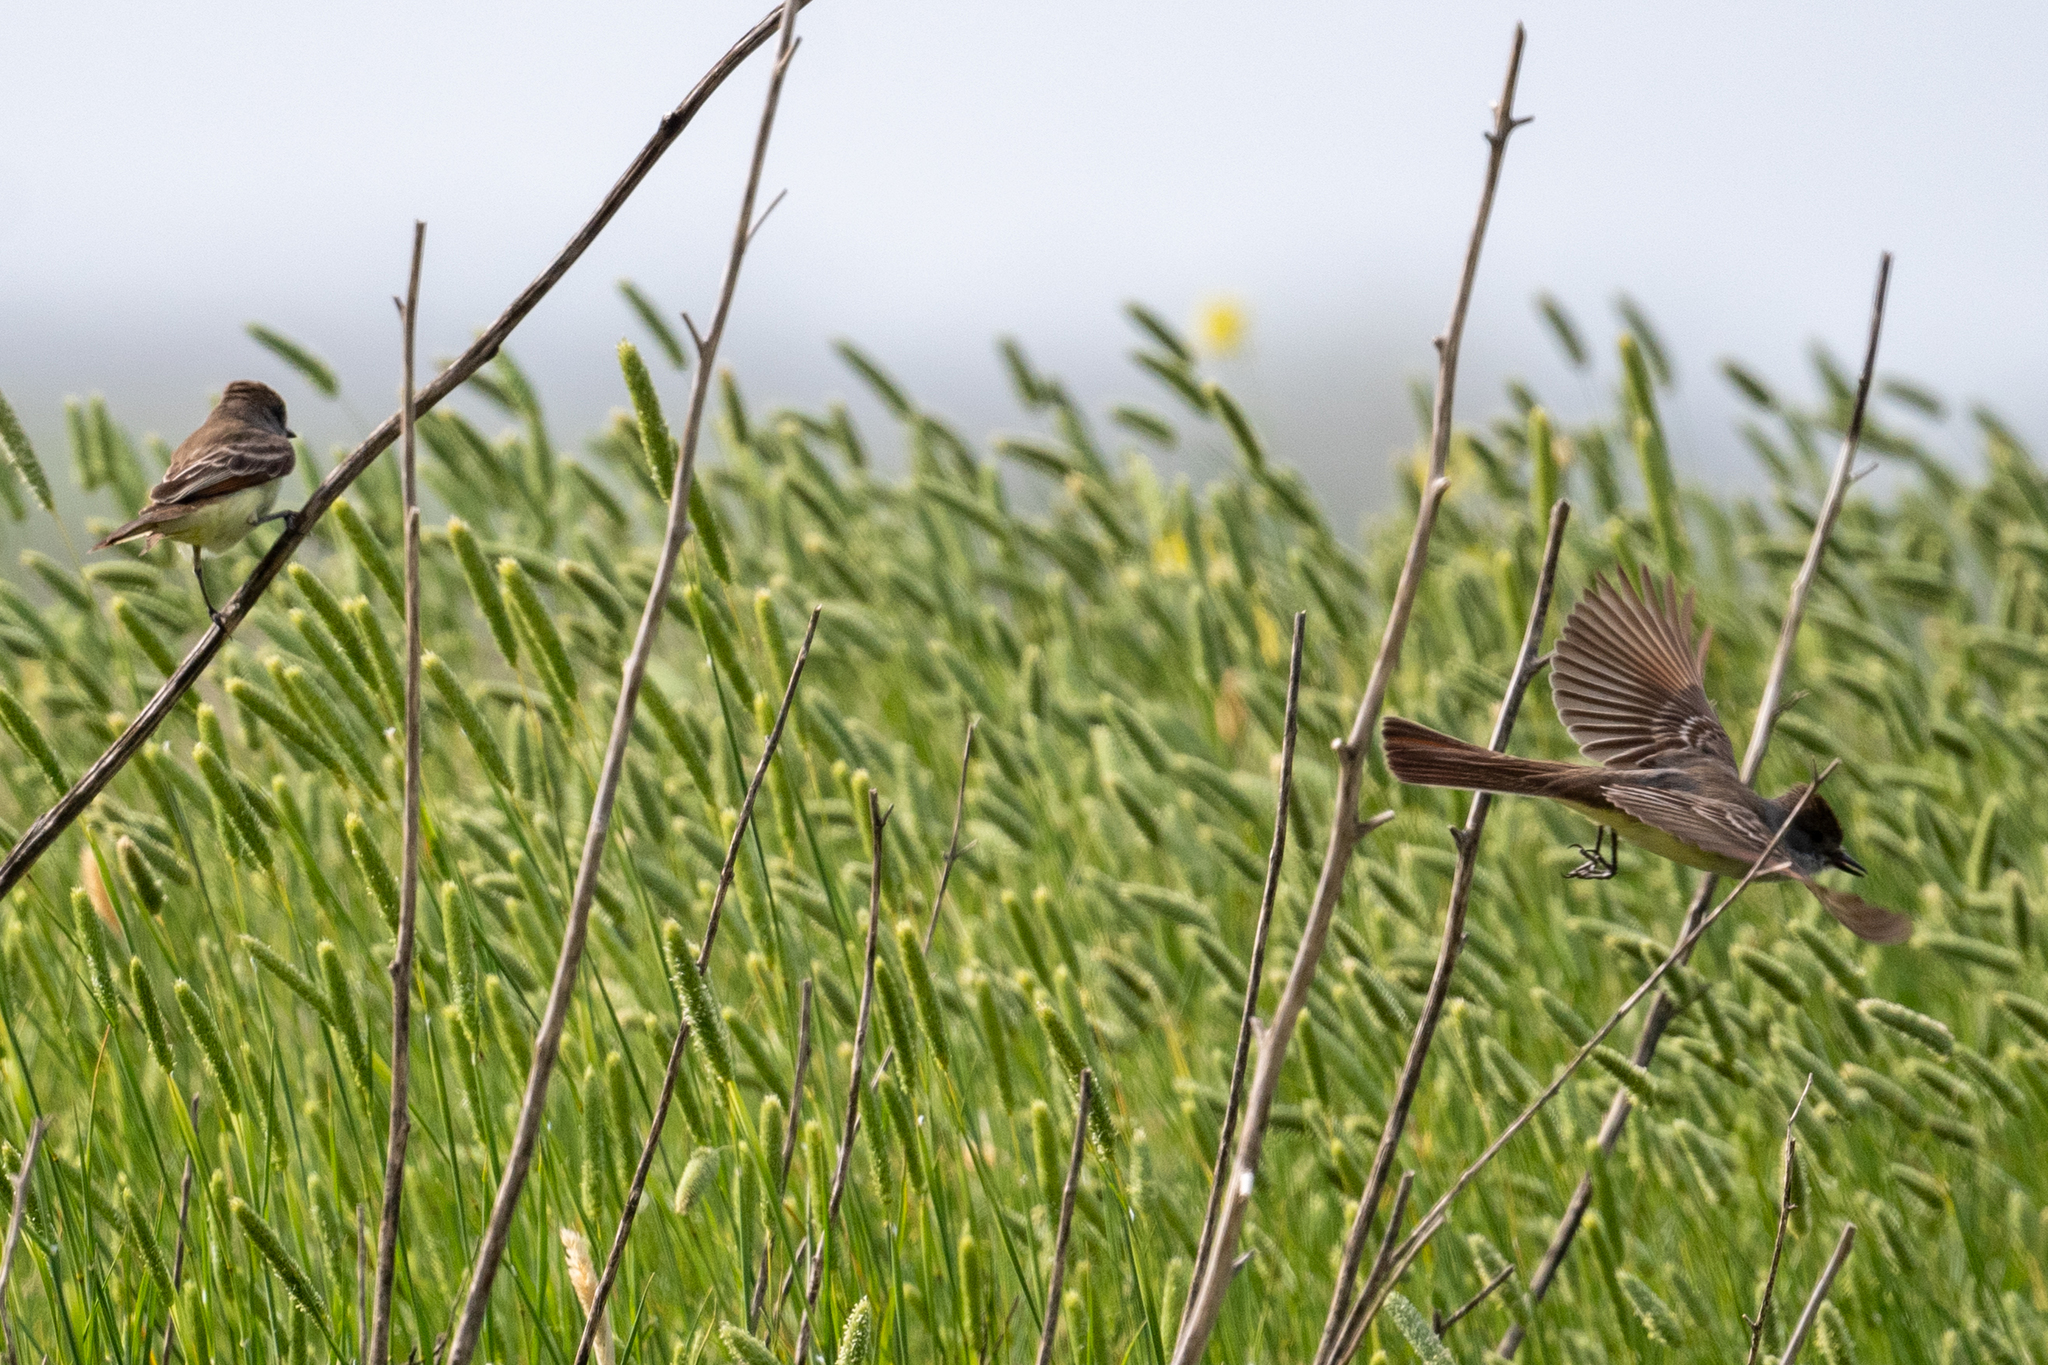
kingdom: Animalia
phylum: Chordata
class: Aves
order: Passeriformes
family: Tyrannidae
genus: Myiarchus
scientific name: Myiarchus cinerascens
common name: Ash-throated flycatcher
